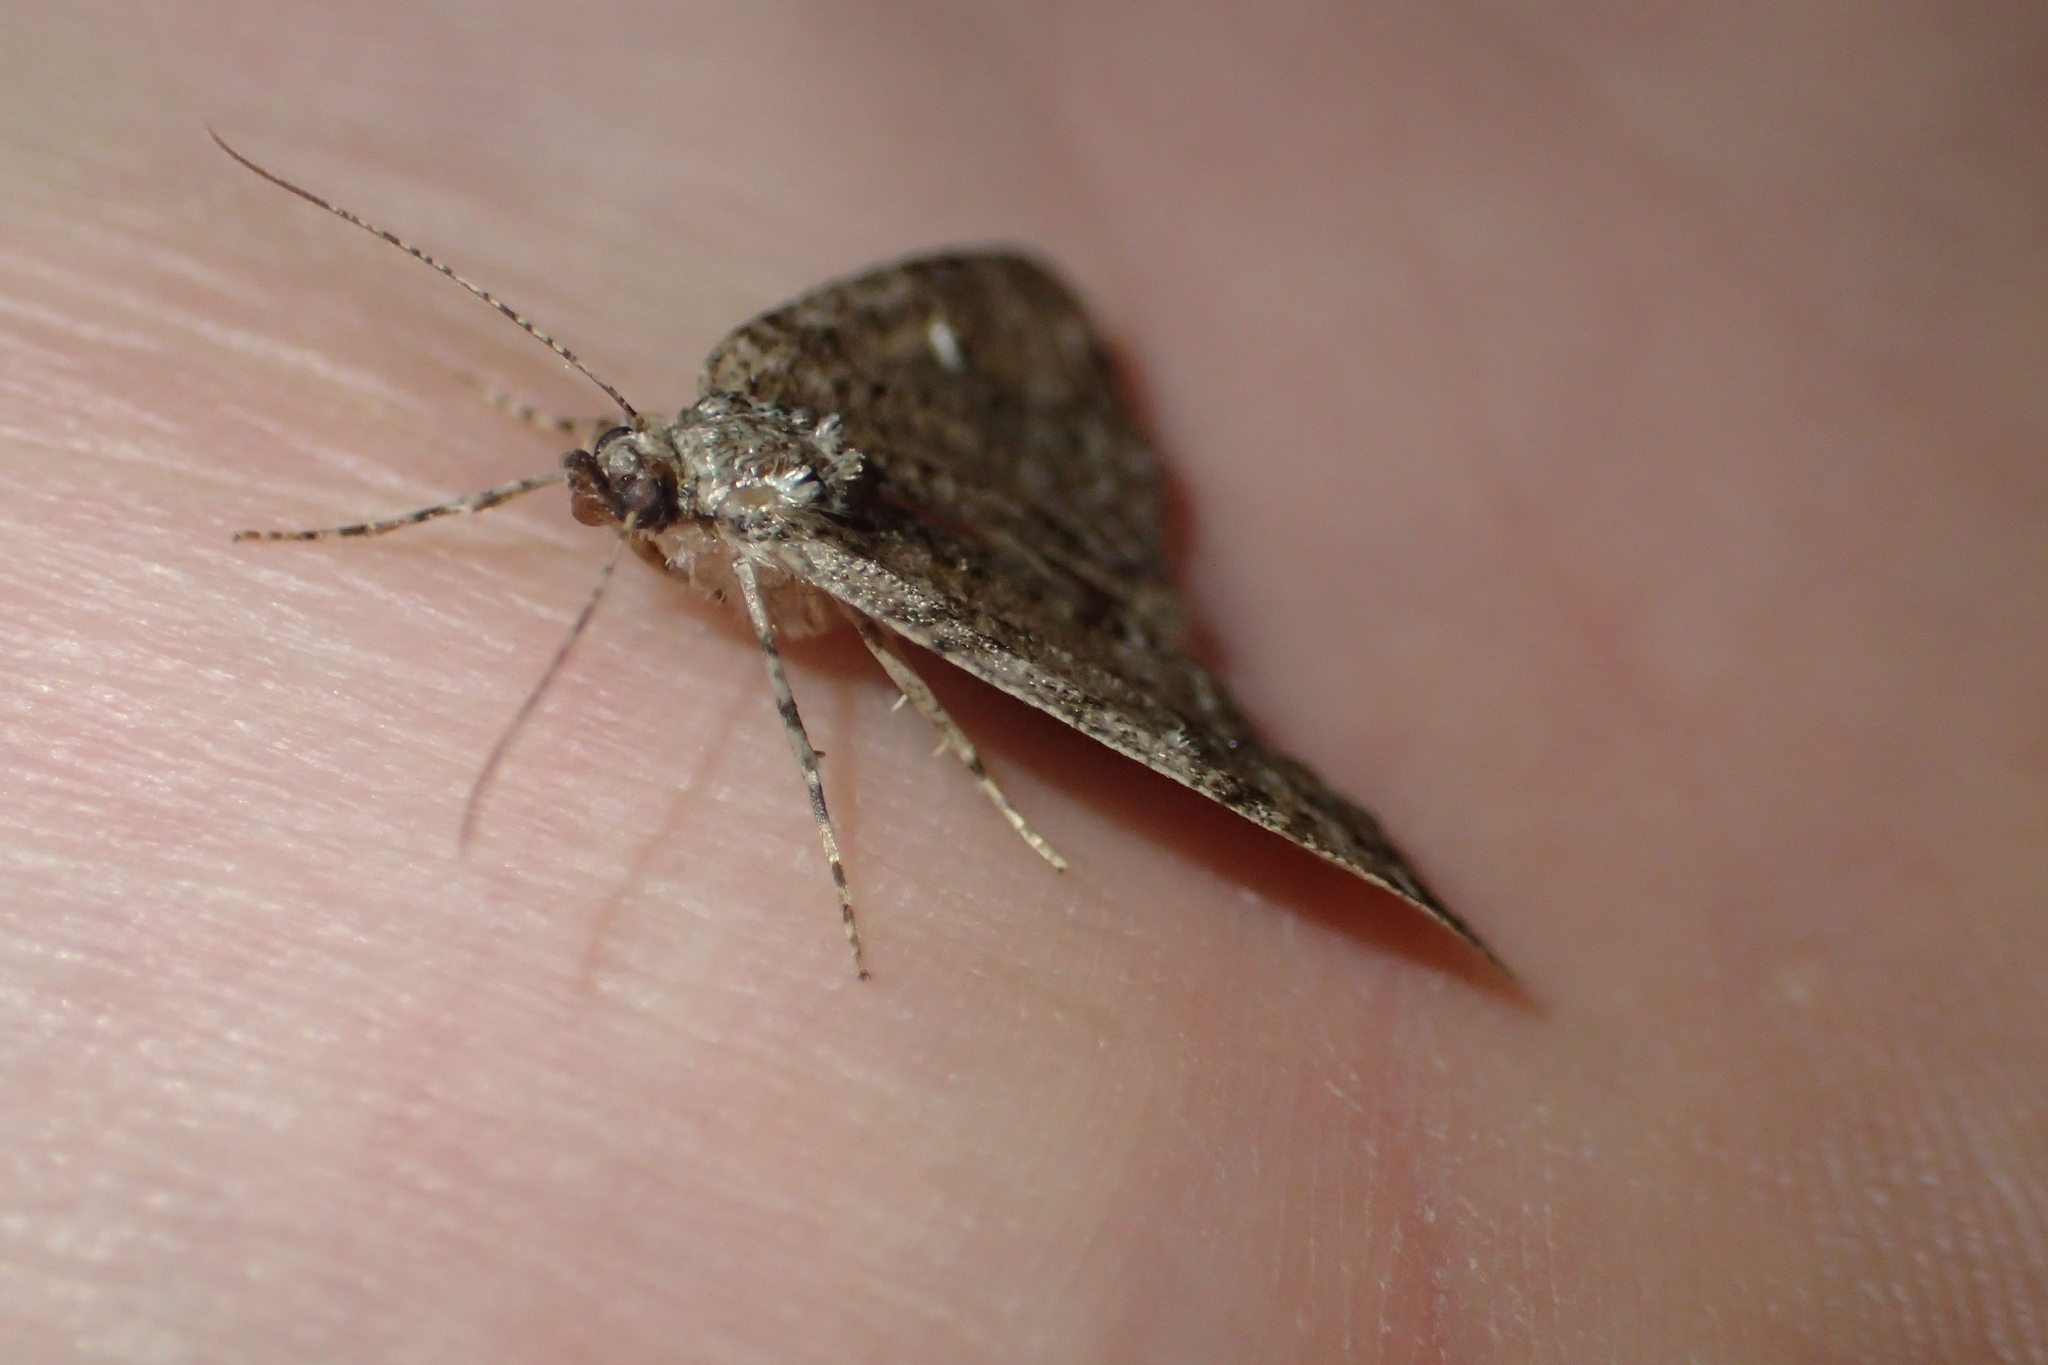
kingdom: Animalia
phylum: Arthropoda
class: Insecta
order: Lepidoptera
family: Geometridae
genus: Pseudocoremia
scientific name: Pseudocoremia suavis
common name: Common forest looper
